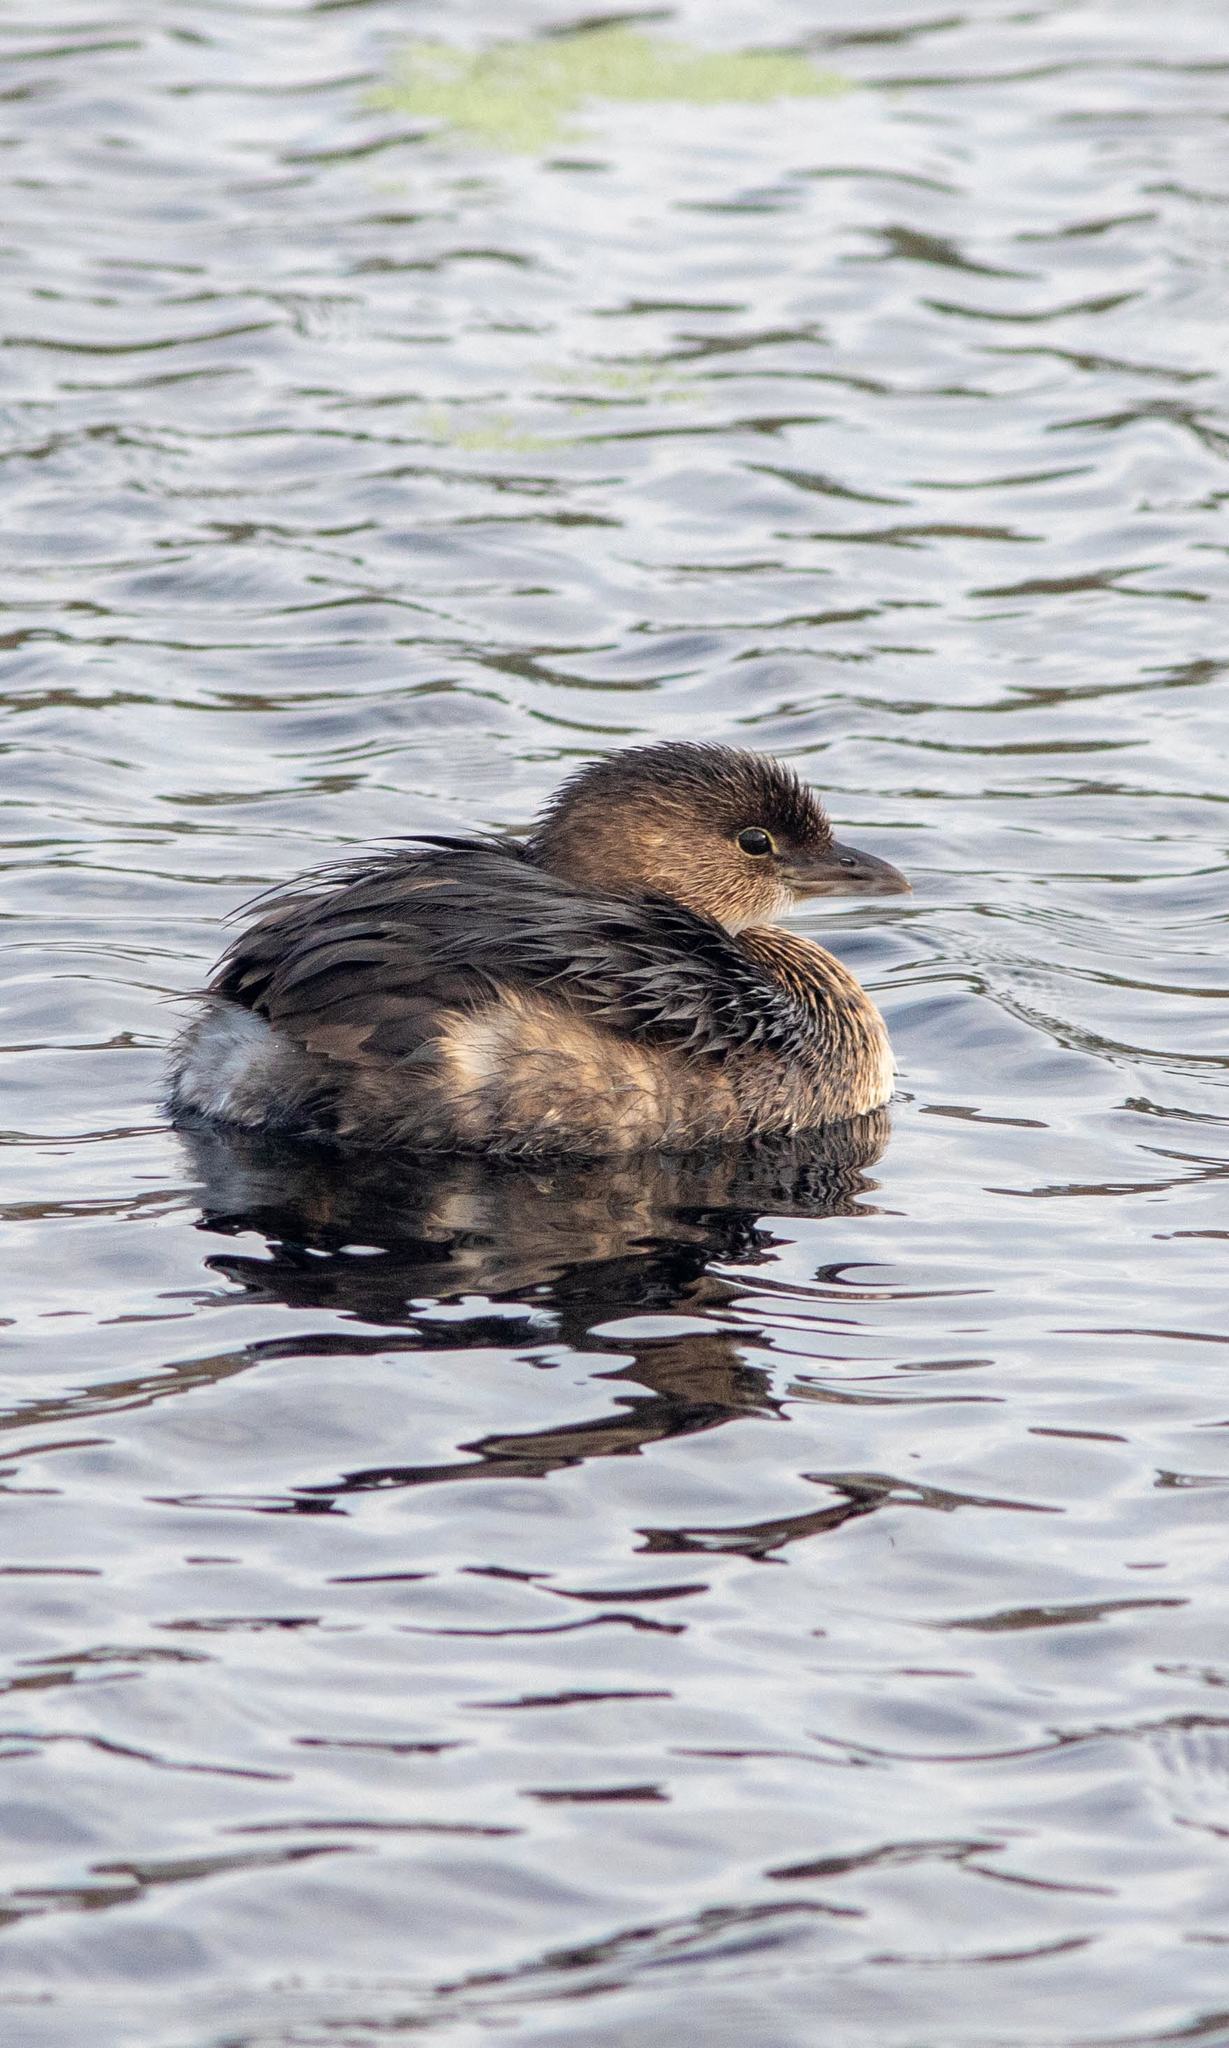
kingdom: Animalia
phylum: Chordata
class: Aves
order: Podicipediformes
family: Podicipedidae
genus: Podilymbus
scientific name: Podilymbus podiceps
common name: Pied-billed grebe
